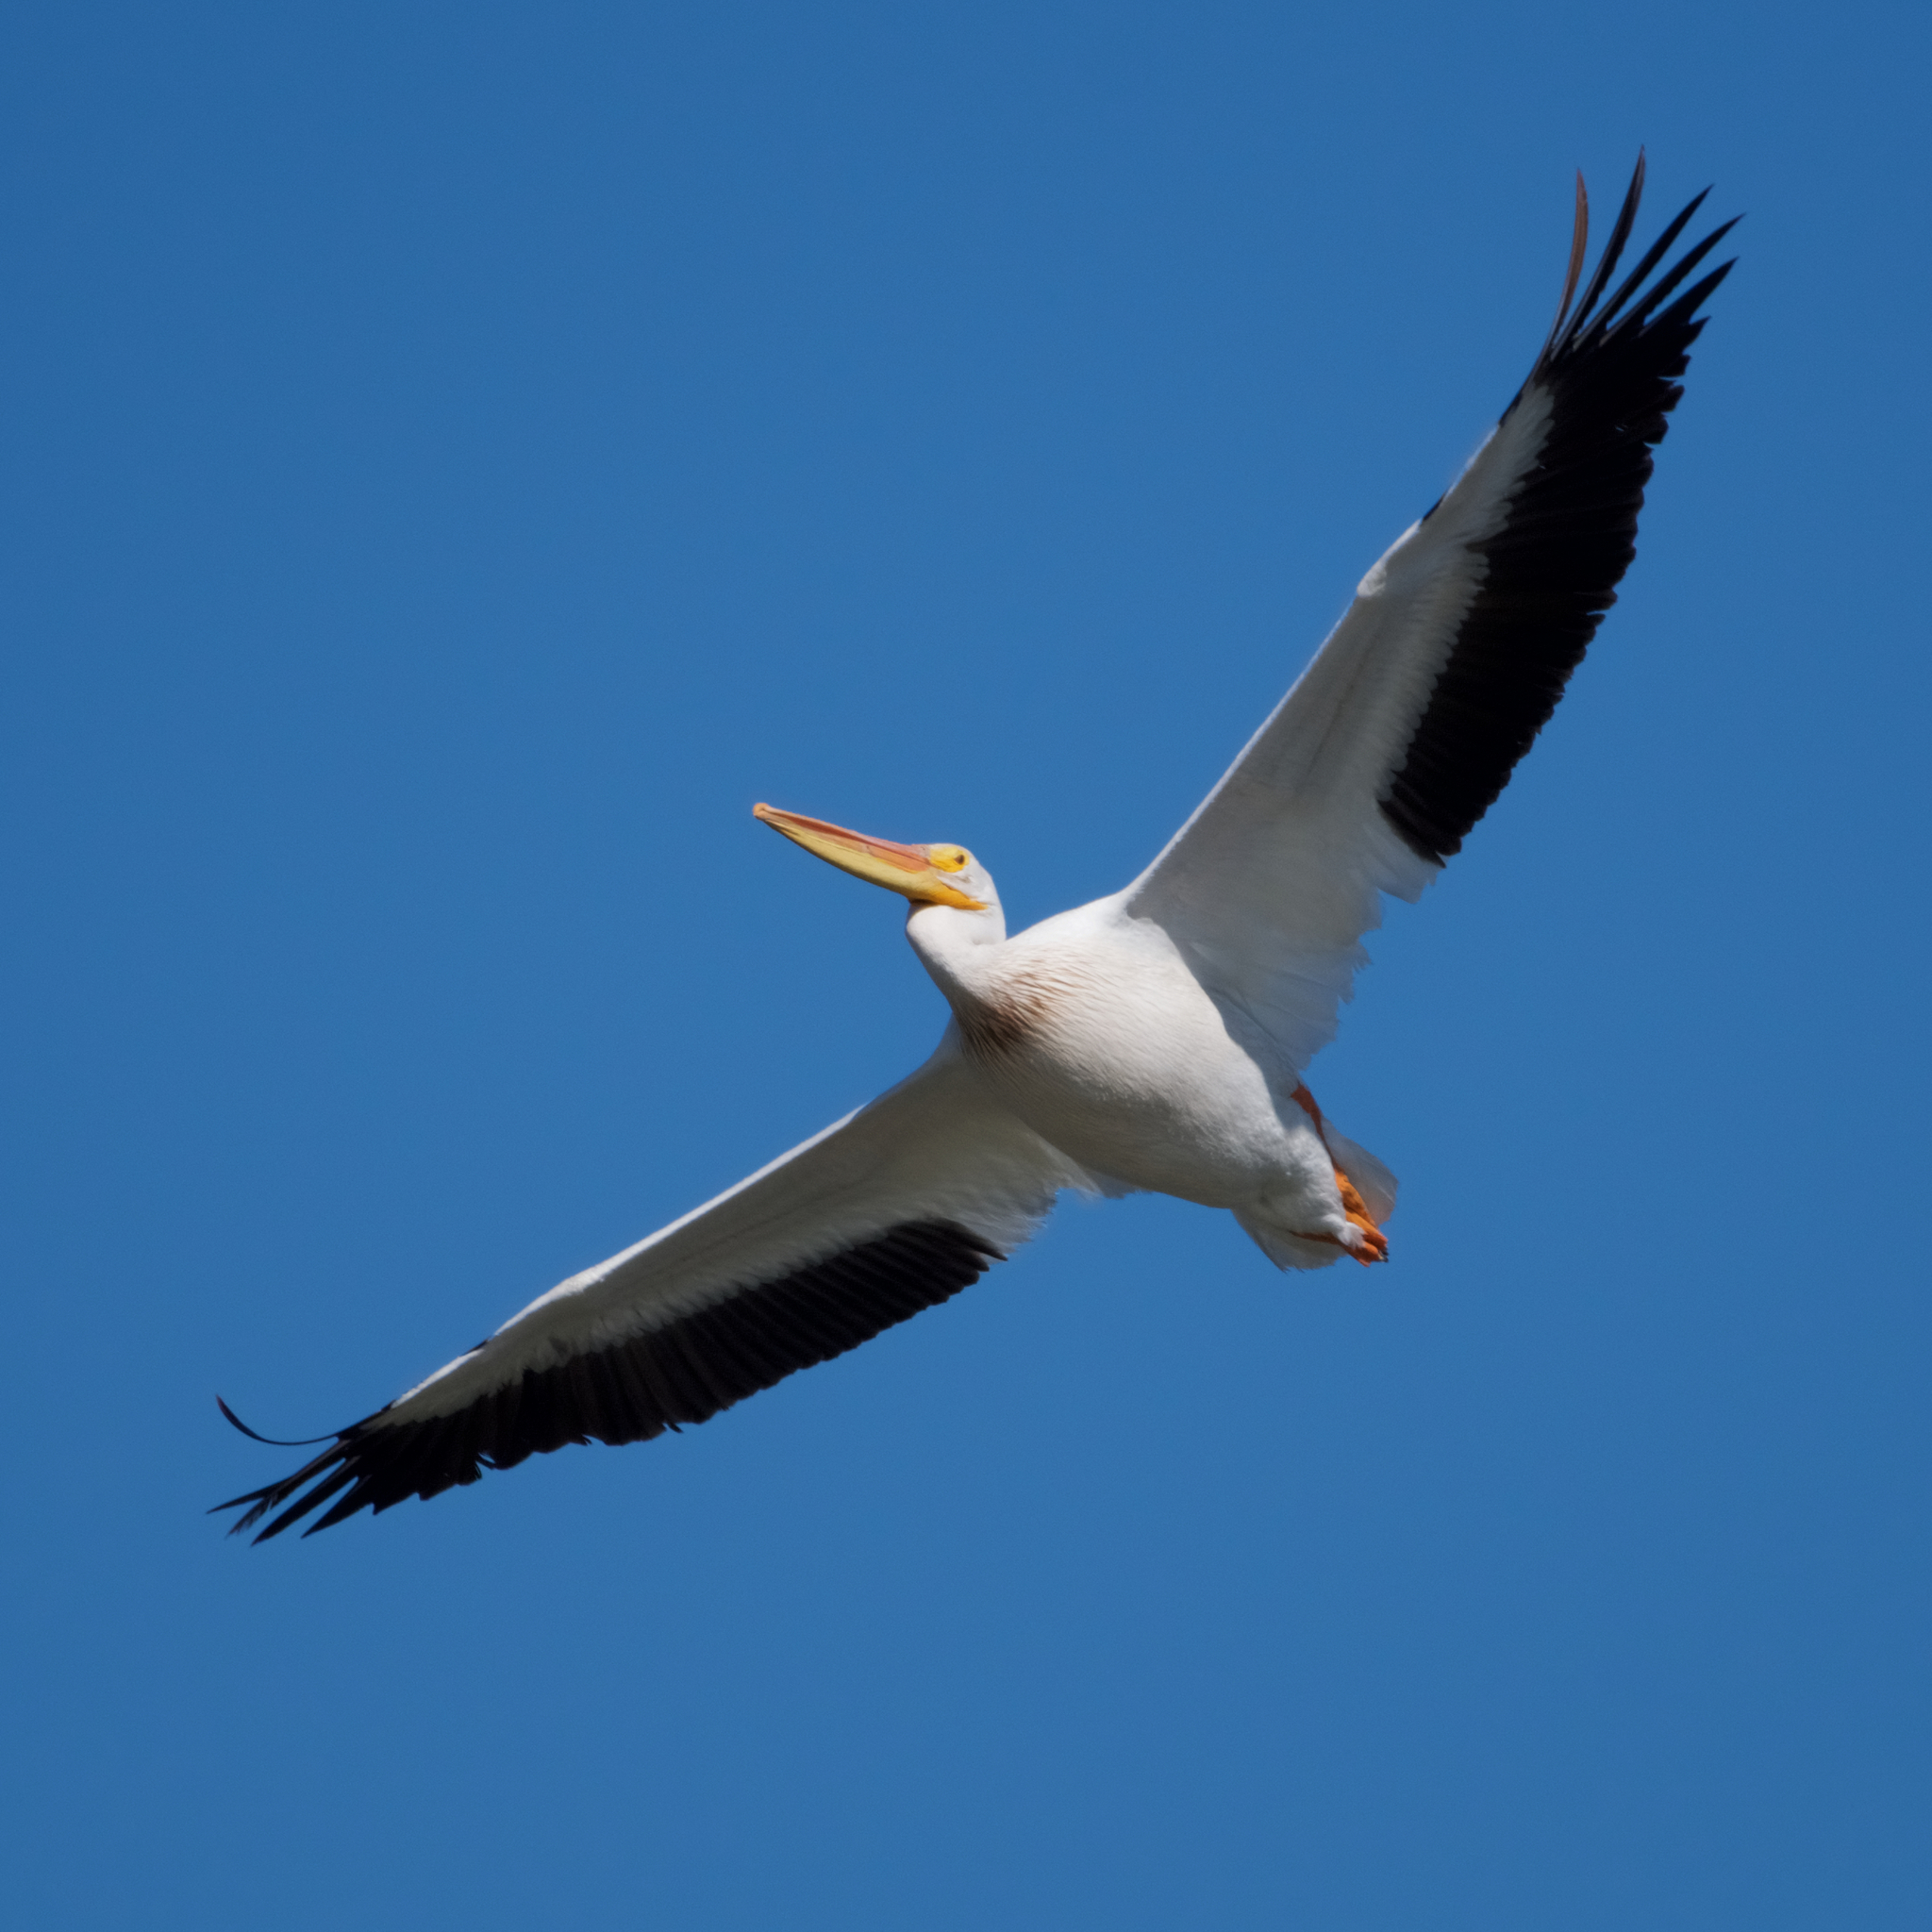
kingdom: Animalia
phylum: Chordata
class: Aves
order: Pelecaniformes
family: Pelecanidae
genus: Pelecanus
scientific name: Pelecanus erythrorhynchos
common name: American white pelican
